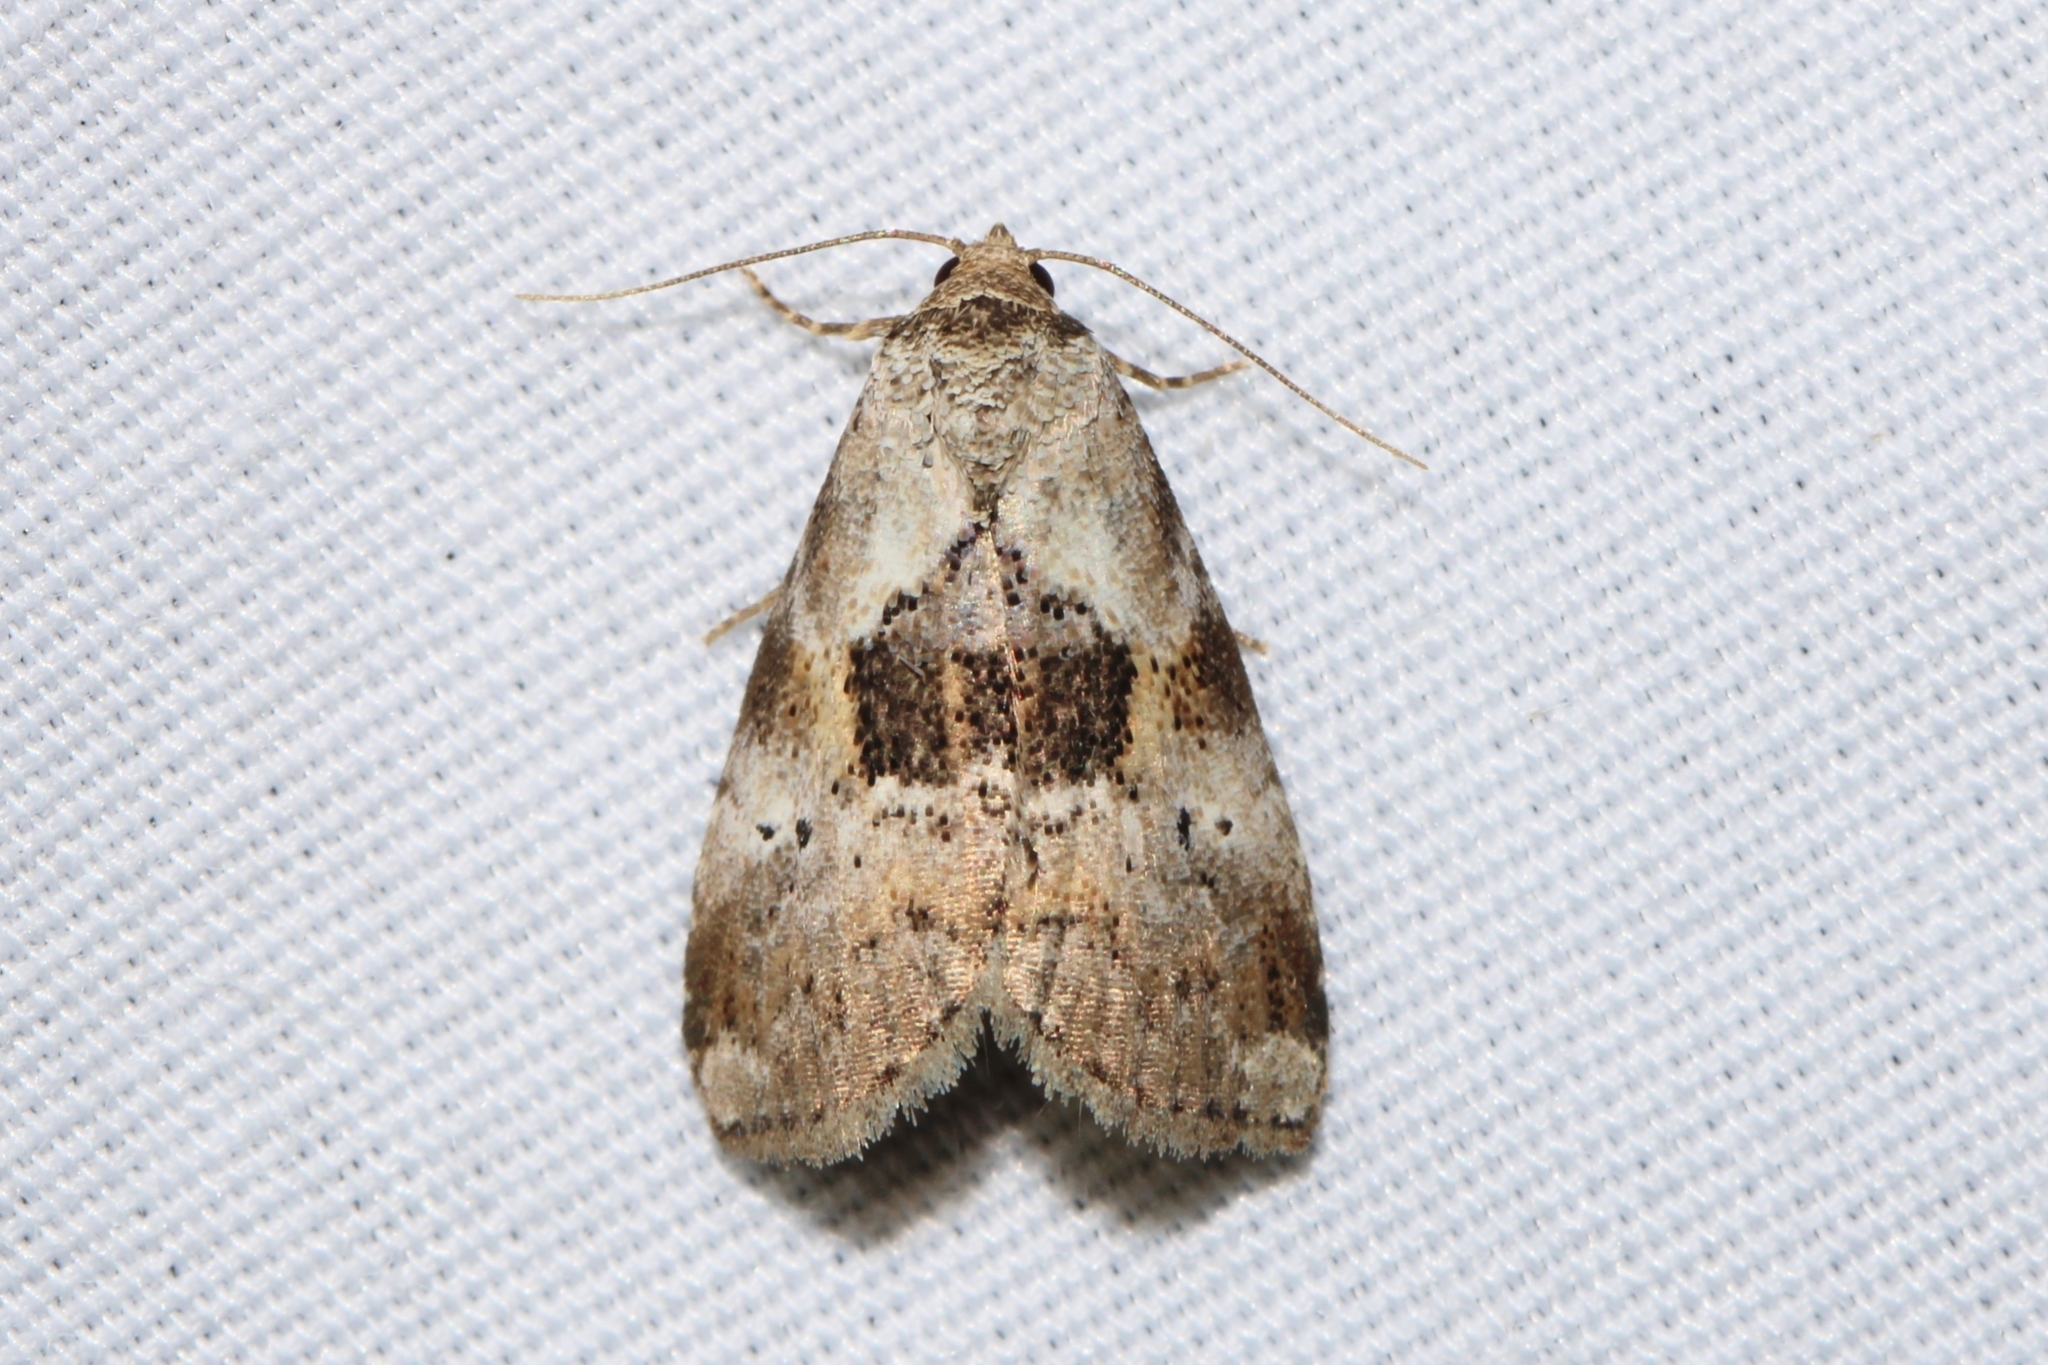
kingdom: Animalia
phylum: Arthropoda
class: Insecta
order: Lepidoptera
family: Erebidae
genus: Hyperstrotia
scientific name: Hyperstrotia secta
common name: Black-patched graylet
